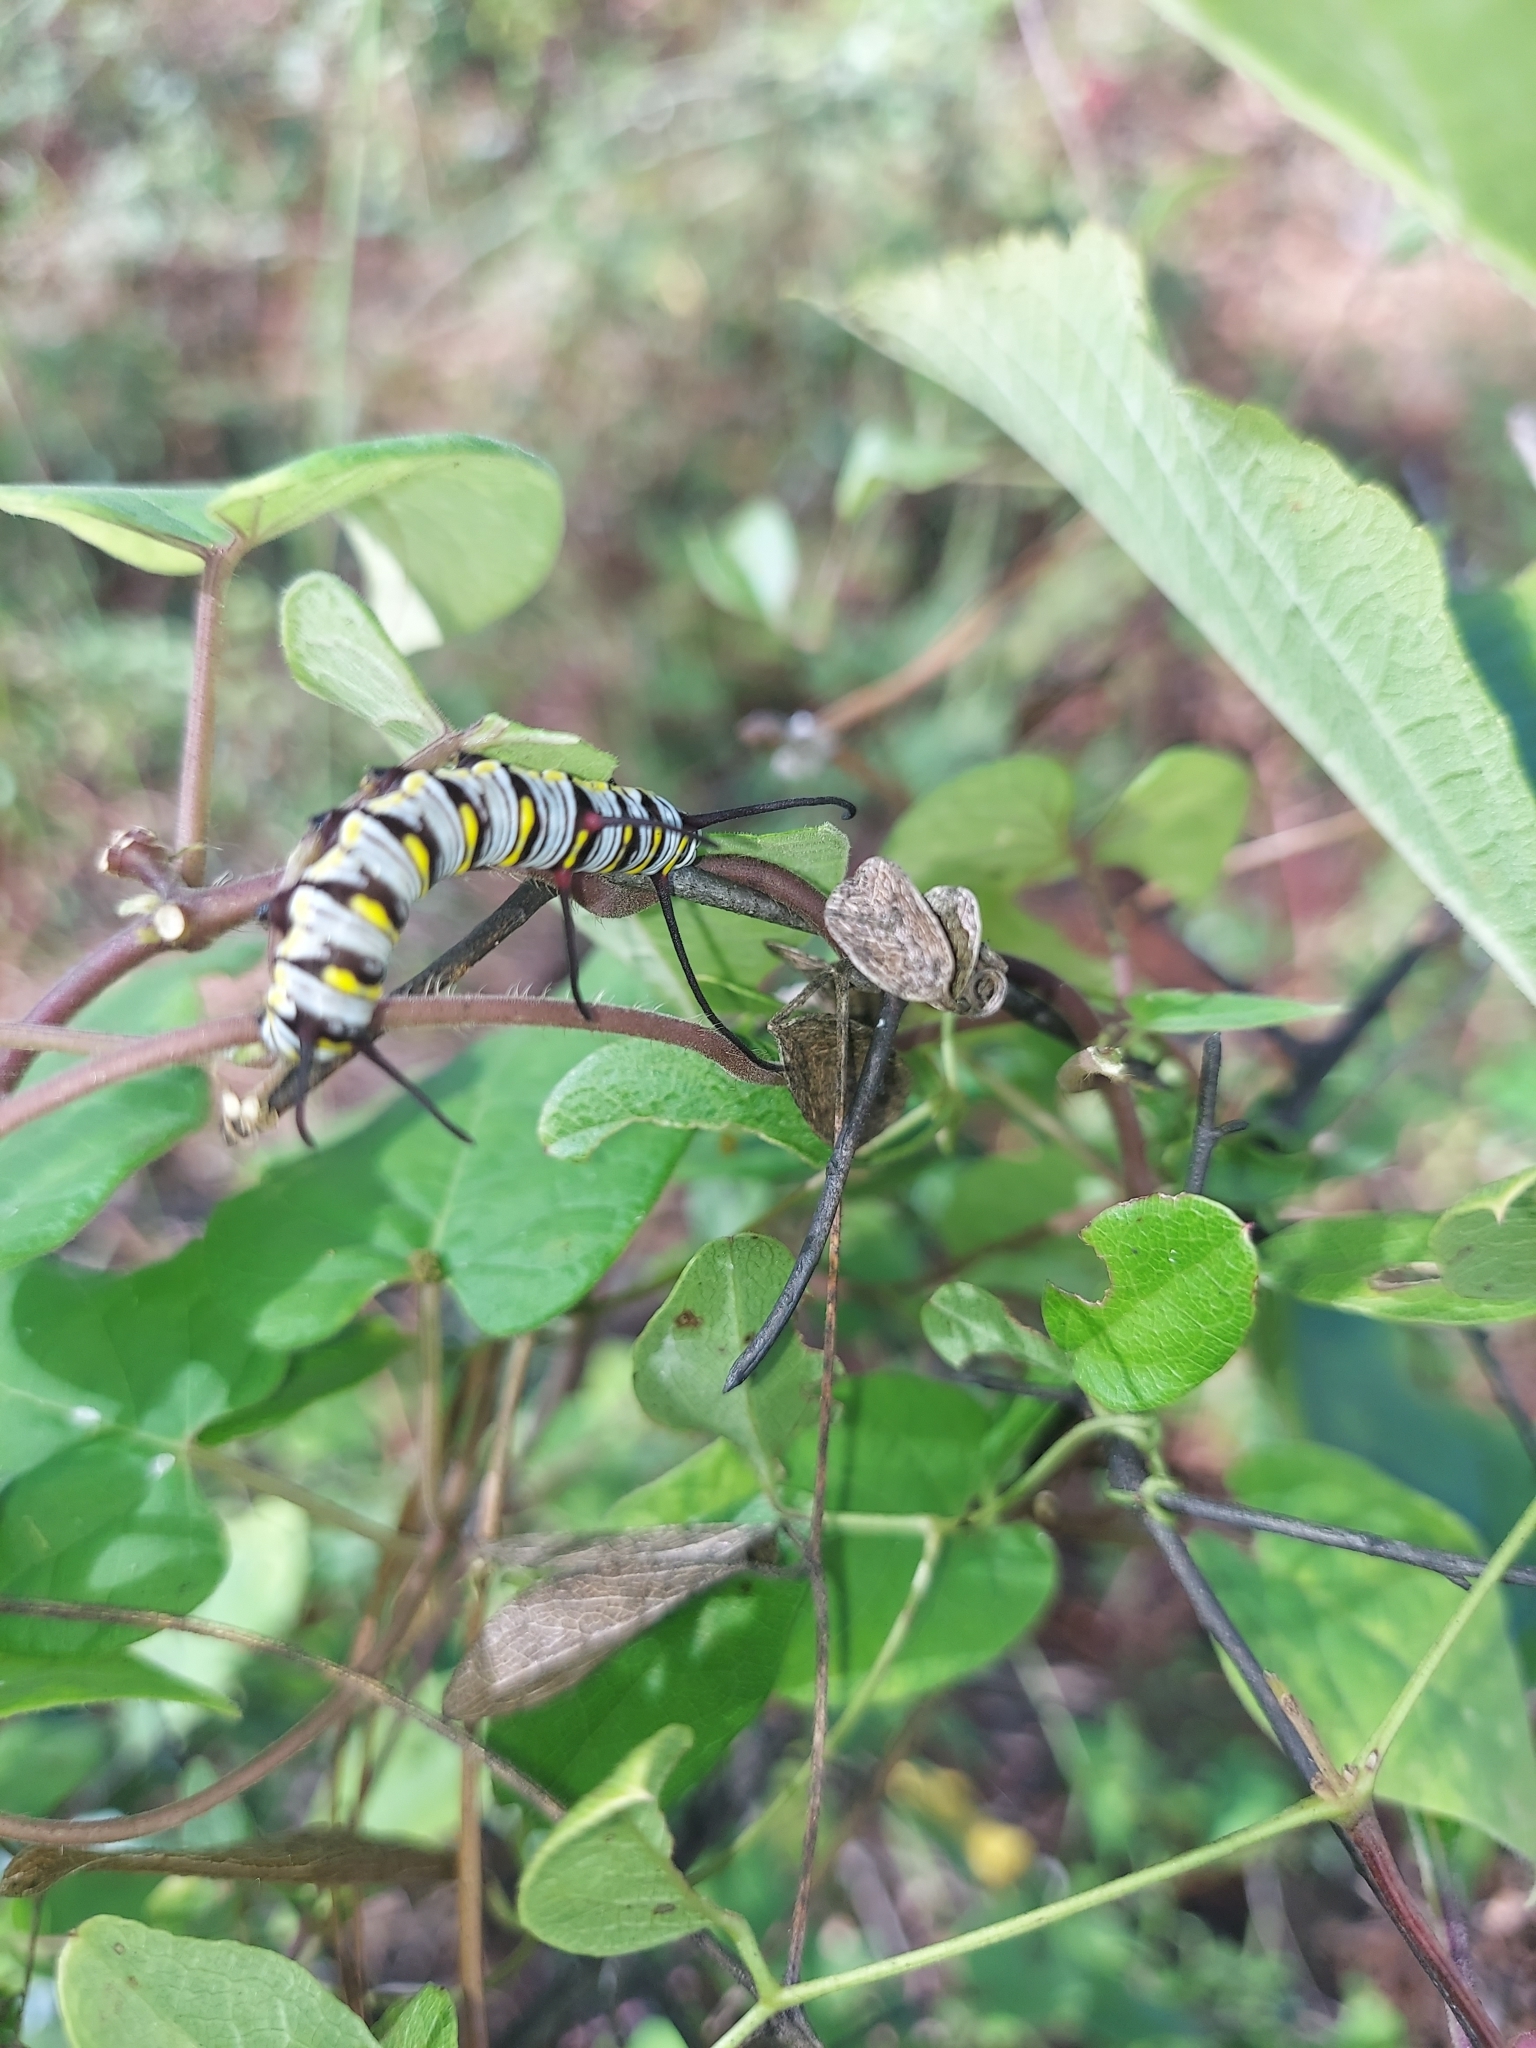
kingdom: Animalia
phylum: Arthropoda
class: Insecta
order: Lepidoptera
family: Nymphalidae
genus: Danaus
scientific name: Danaus gilippus
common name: Queen
